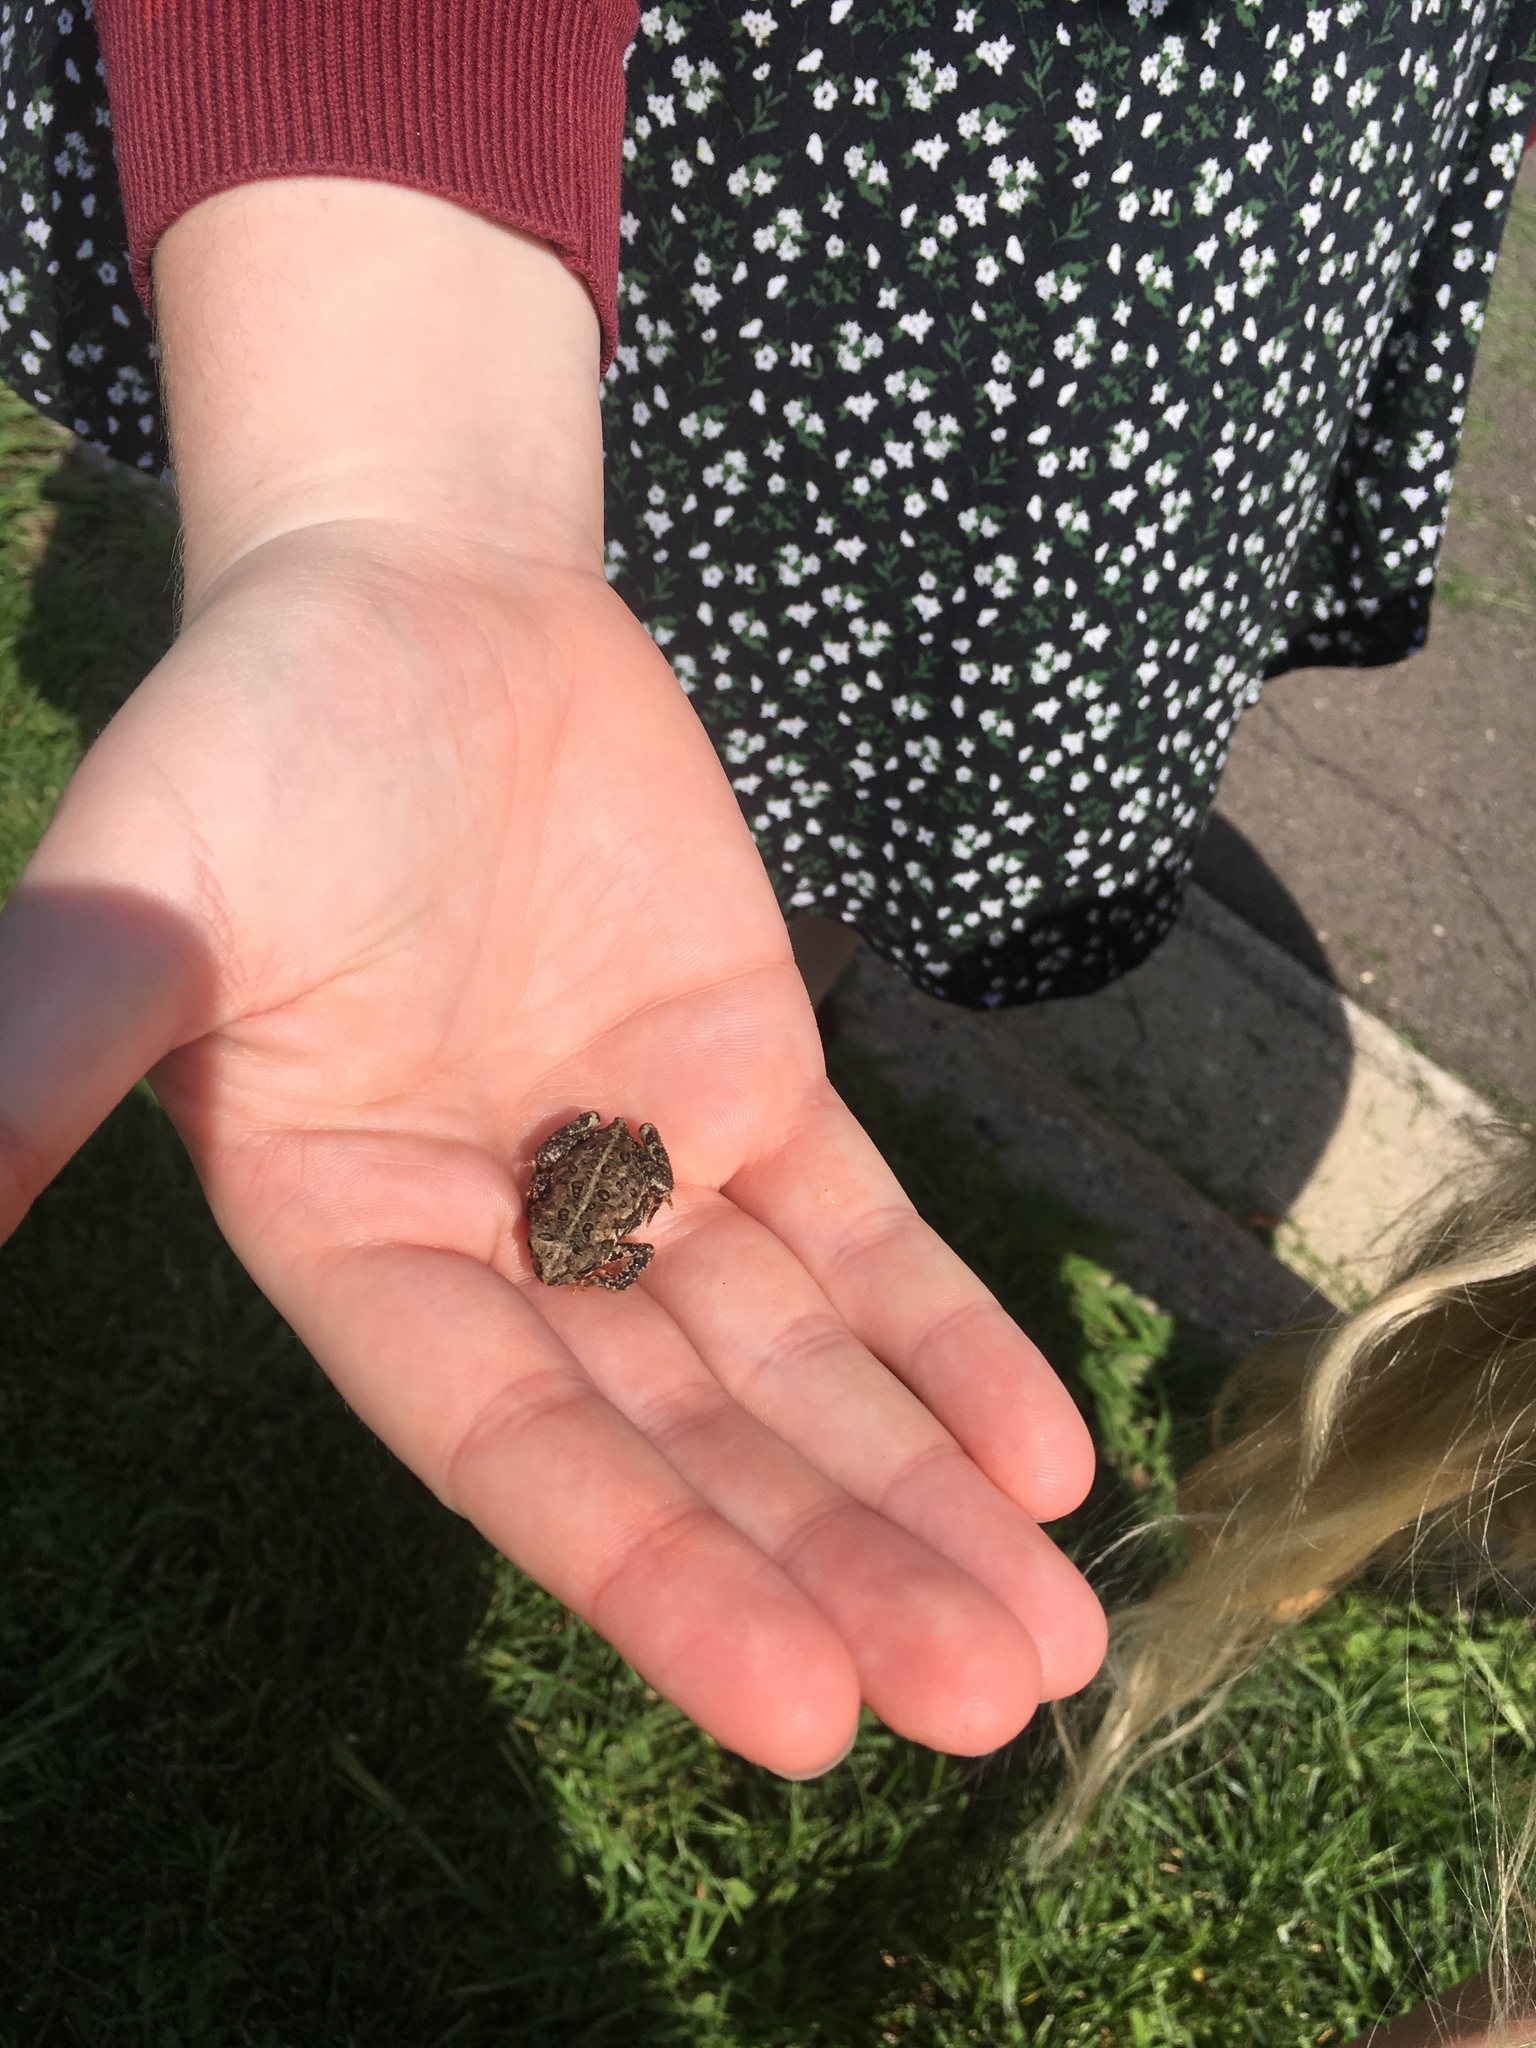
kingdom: Animalia
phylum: Chordata
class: Amphibia
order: Anura
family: Bufonidae
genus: Anaxyrus
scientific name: Anaxyrus americanus
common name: American toad
